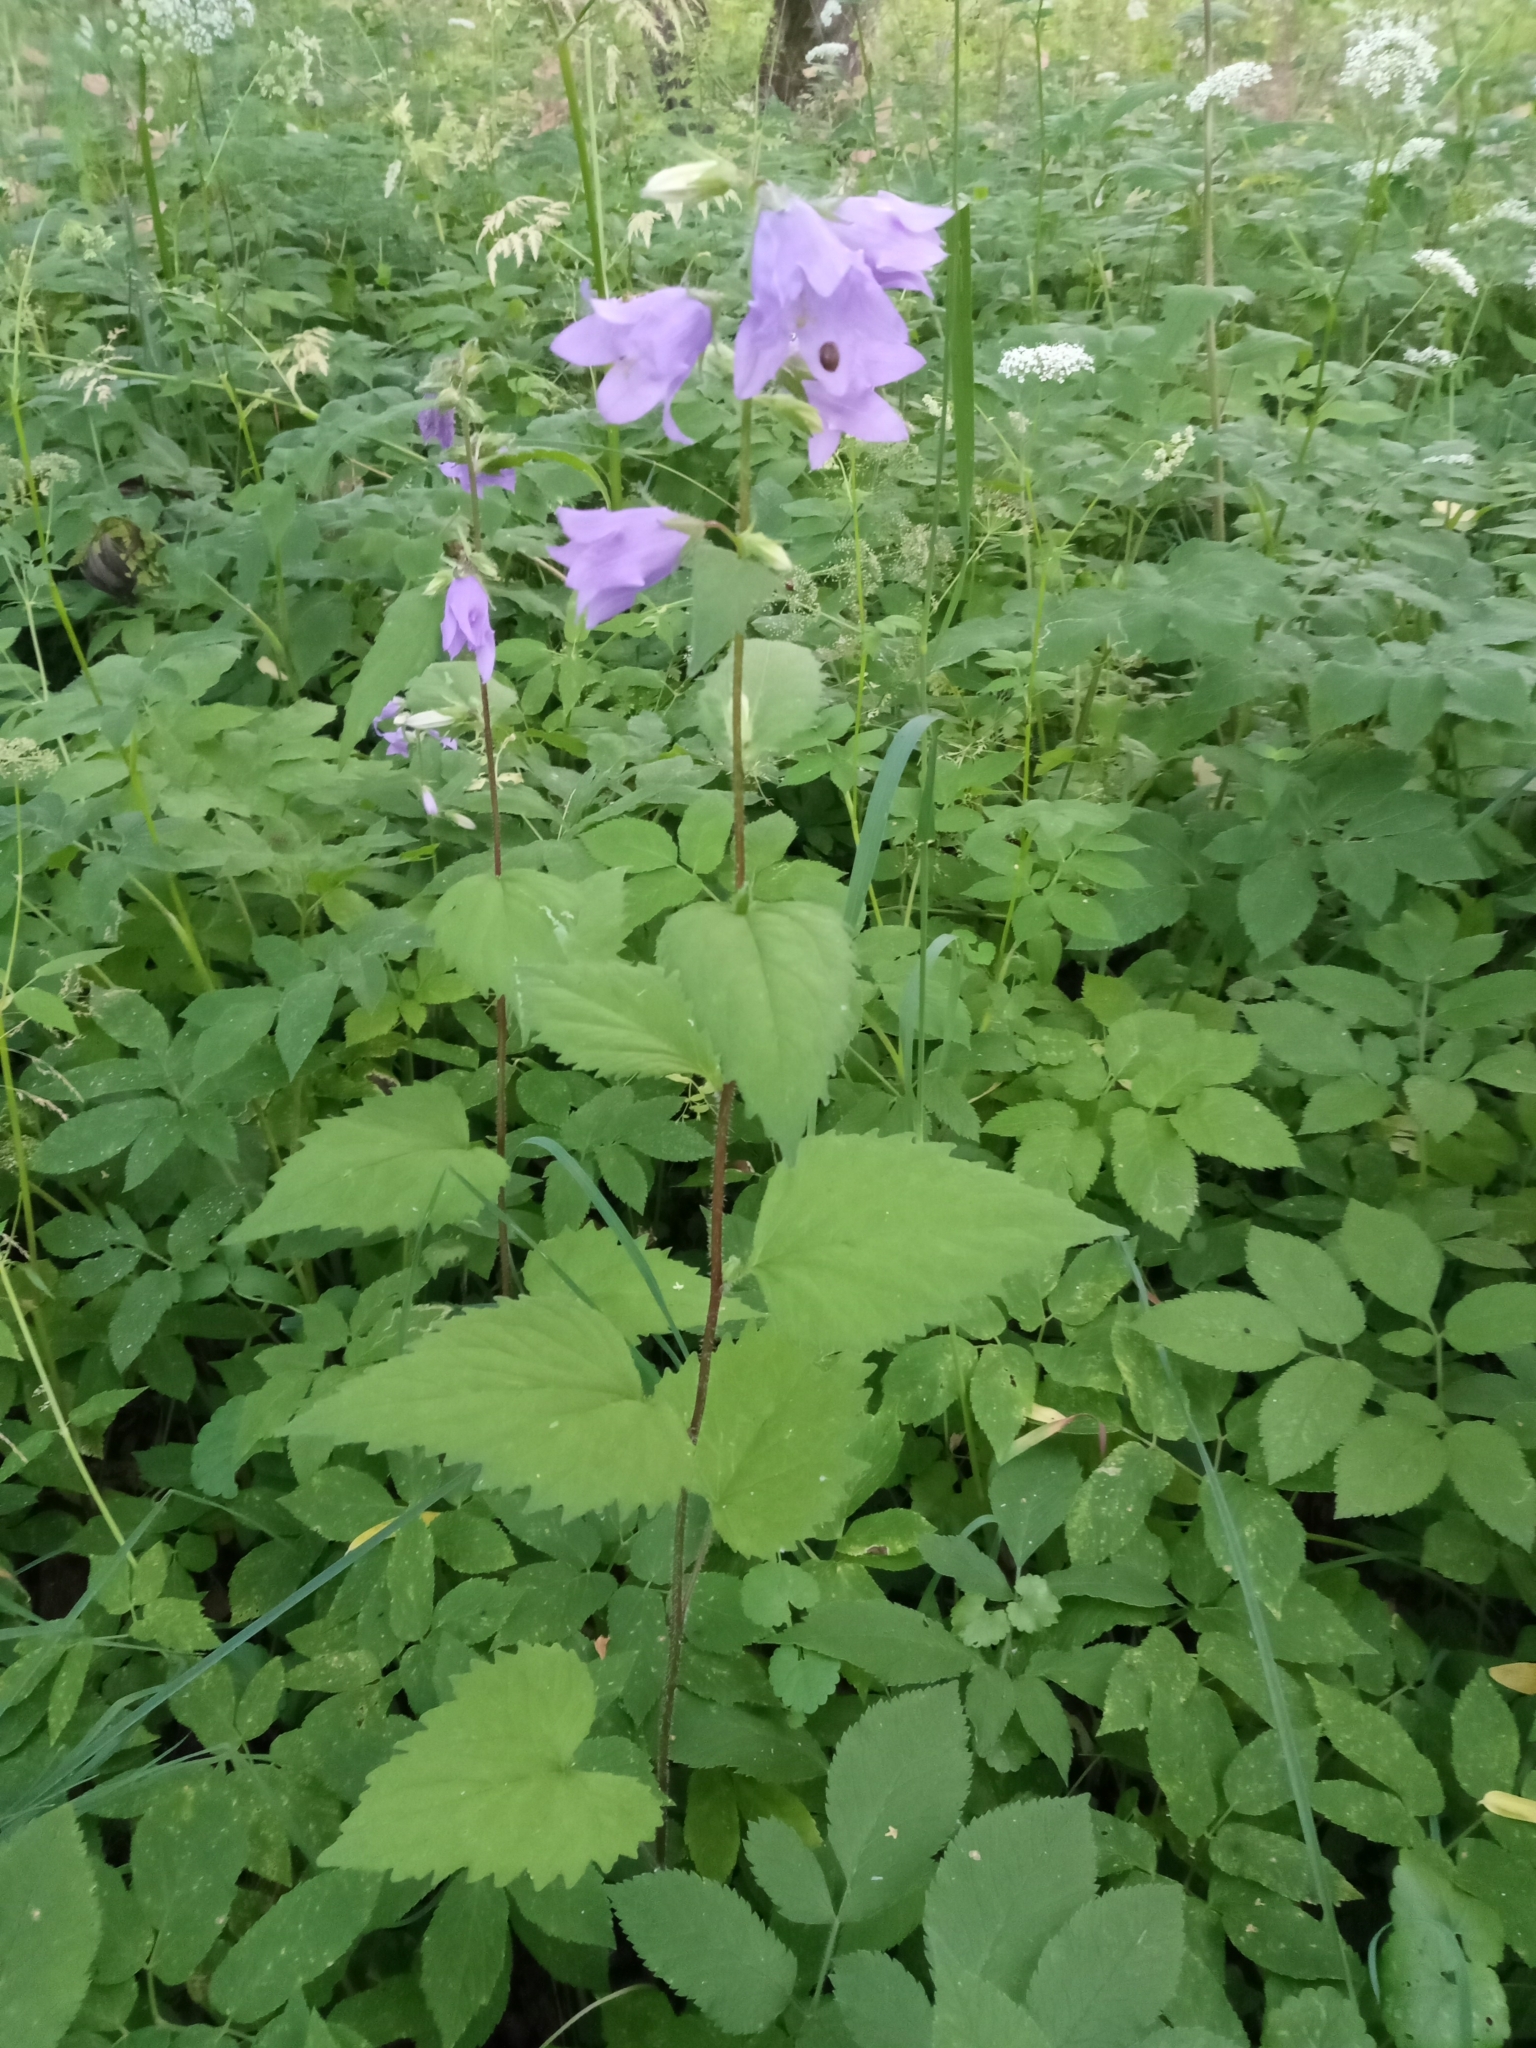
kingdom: Plantae
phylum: Tracheophyta
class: Magnoliopsida
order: Asterales
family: Campanulaceae
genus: Campanula
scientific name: Campanula trachelium
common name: Nettle-leaved bellflower
